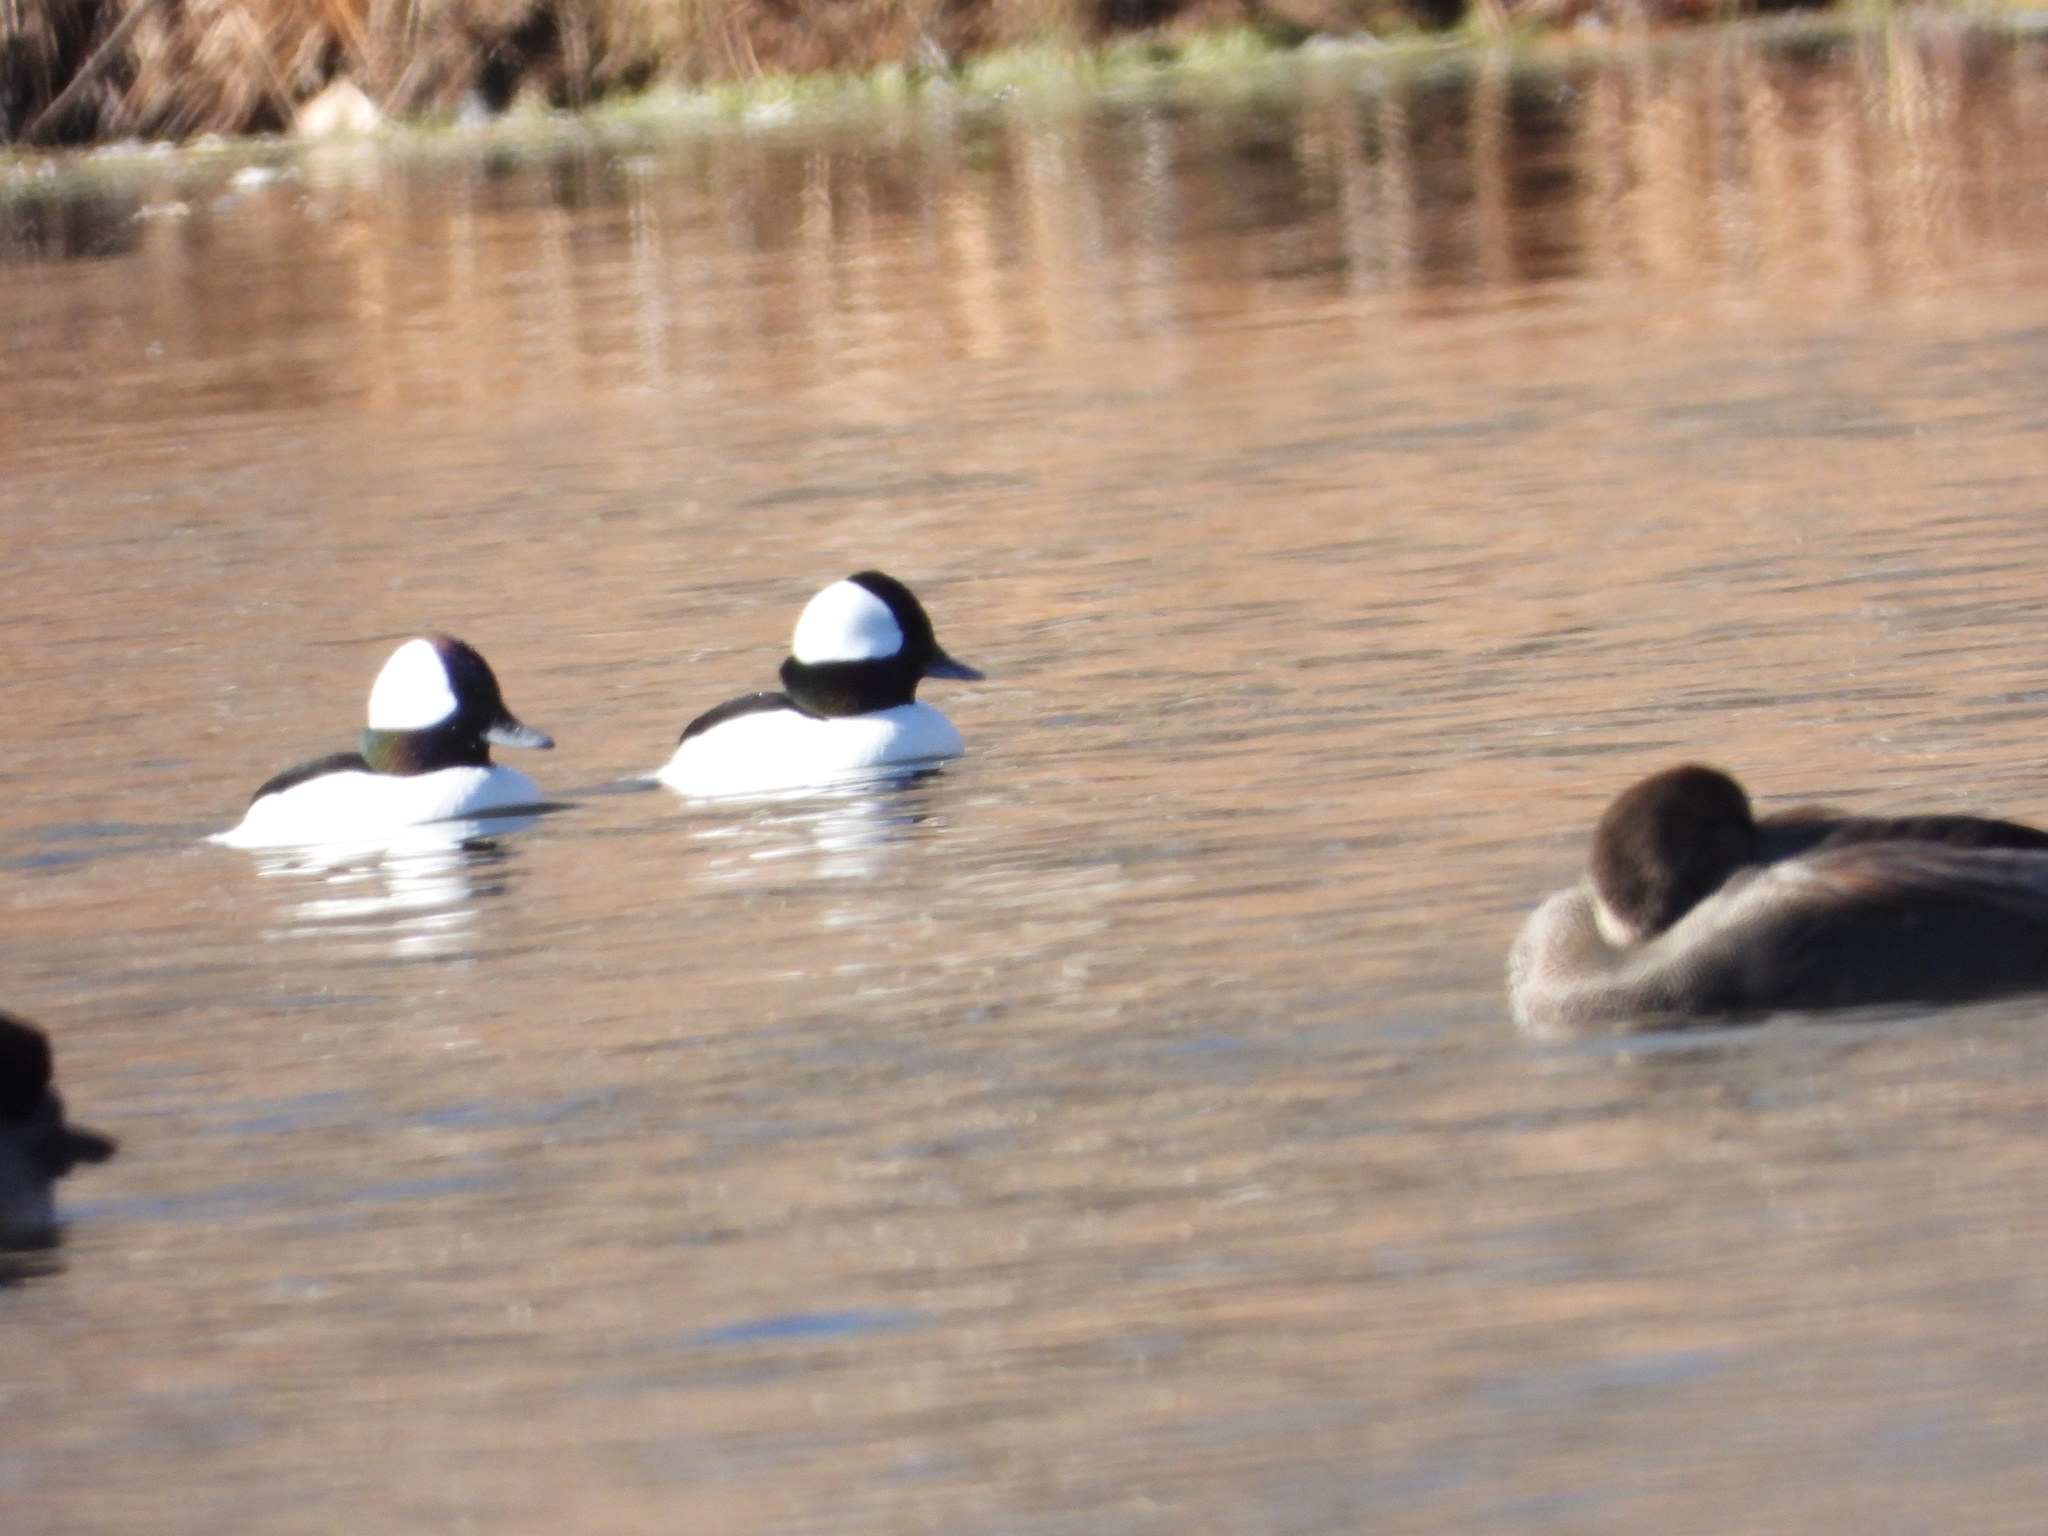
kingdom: Animalia
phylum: Chordata
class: Aves
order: Anseriformes
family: Anatidae
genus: Bucephala
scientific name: Bucephala albeola
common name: Bufflehead
